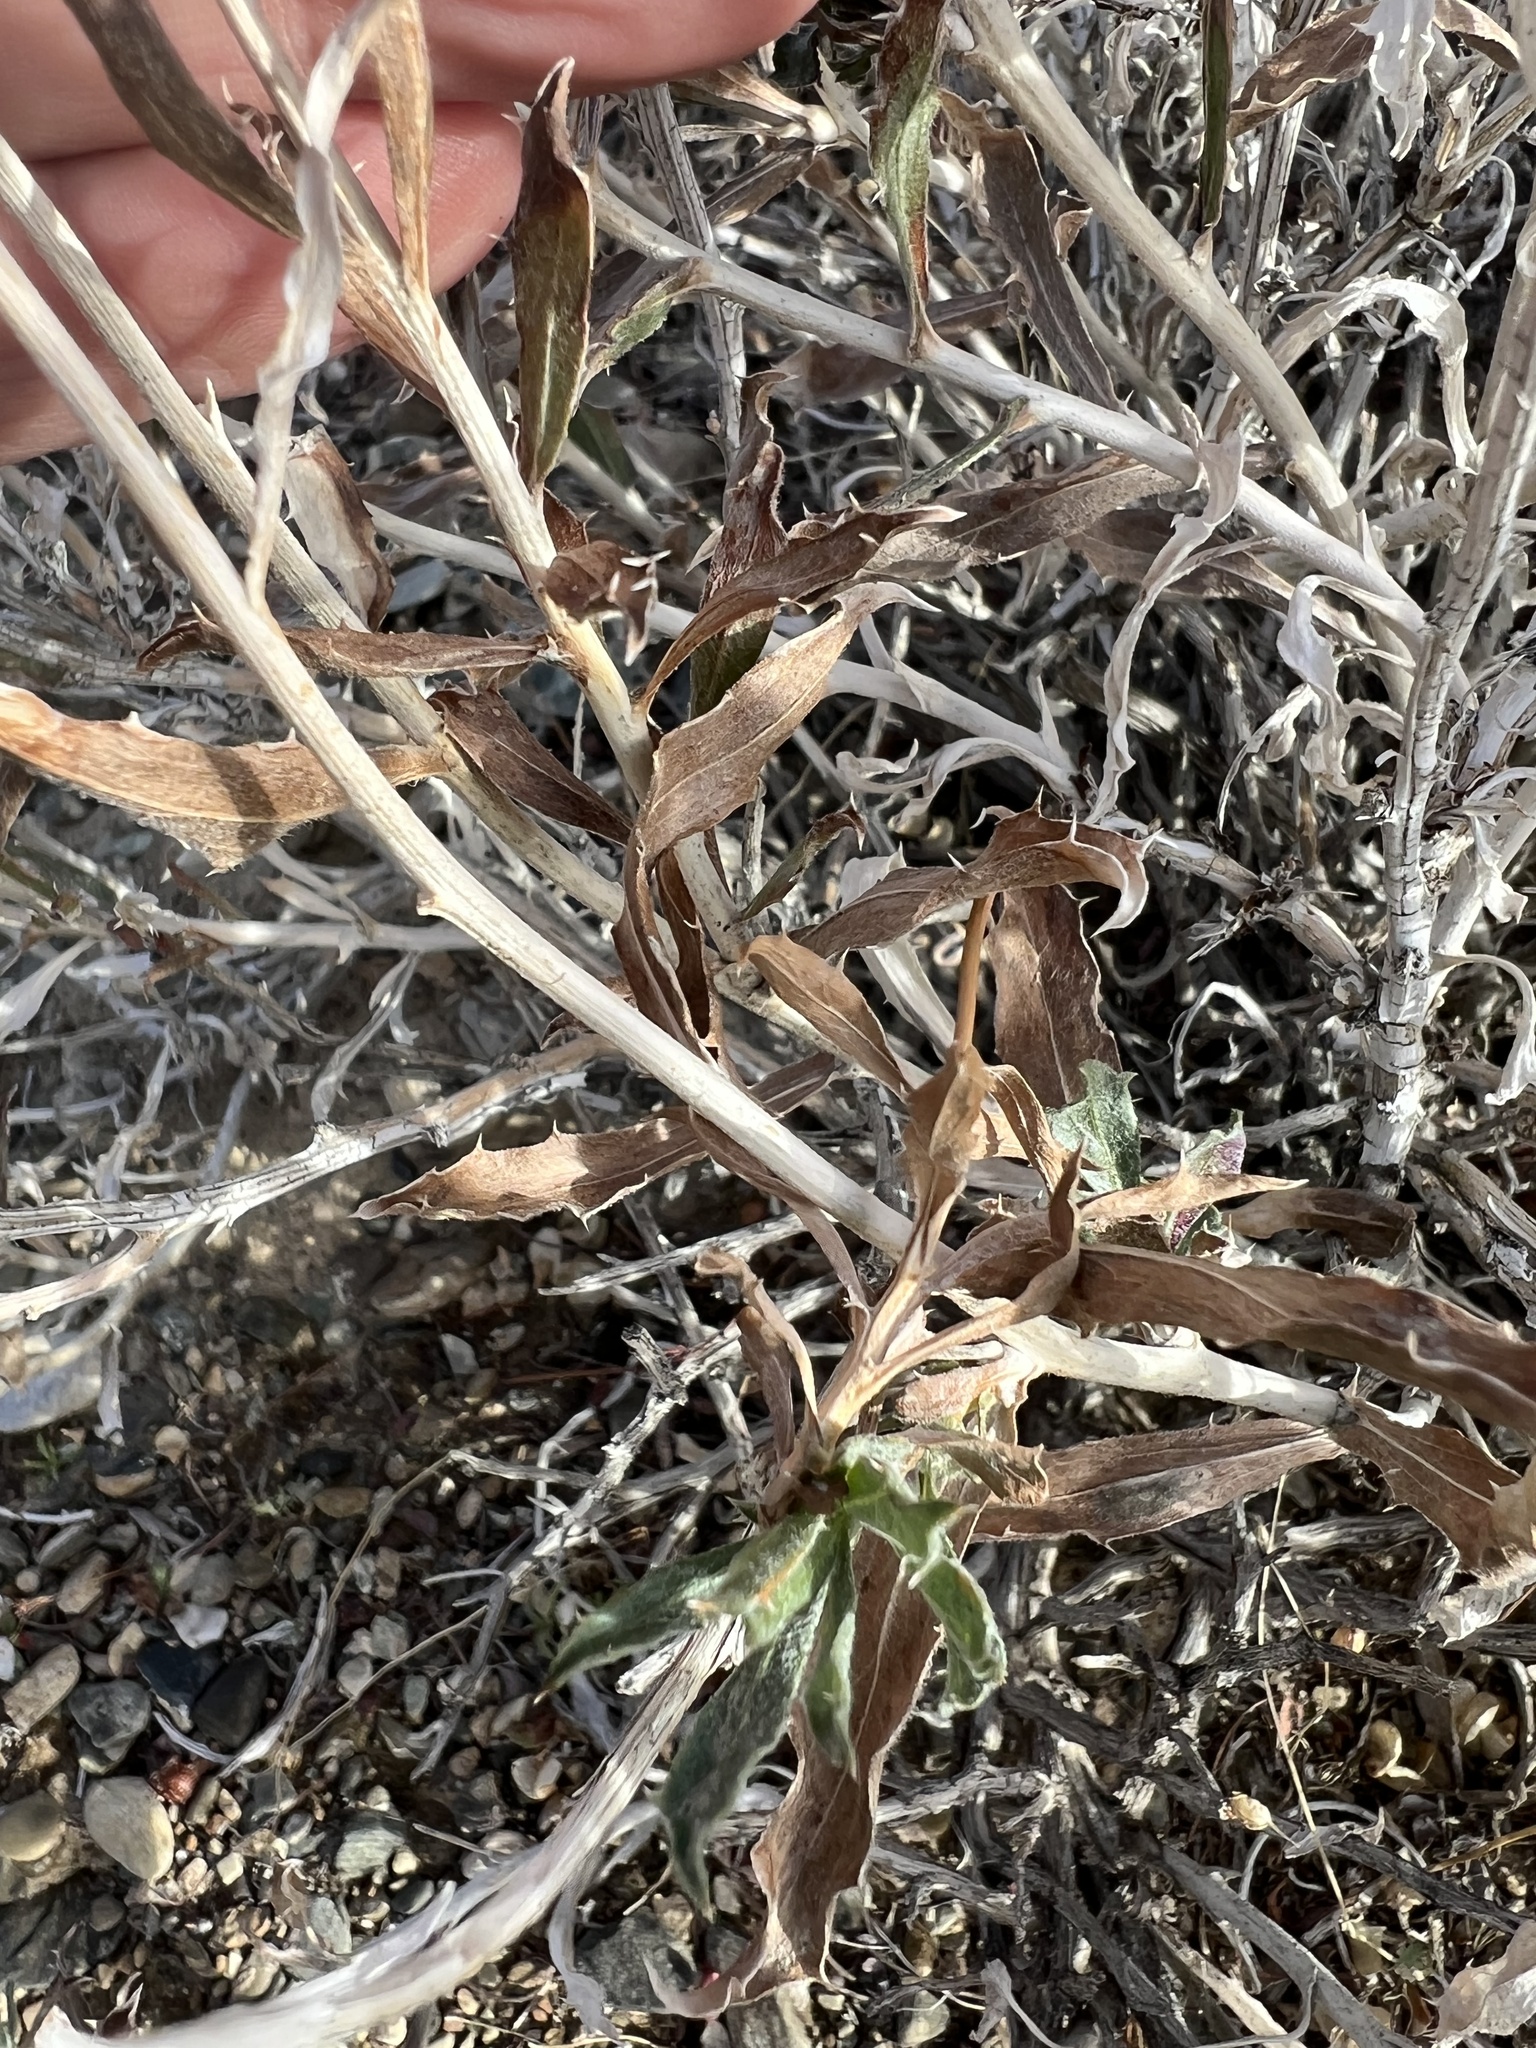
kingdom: Plantae
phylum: Tracheophyta
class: Magnoliopsida
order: Asterales
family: Asteraceae
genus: Xylorhiza
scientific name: Xylorhiza tortifolia
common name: Hurt-leaf woody-aster
